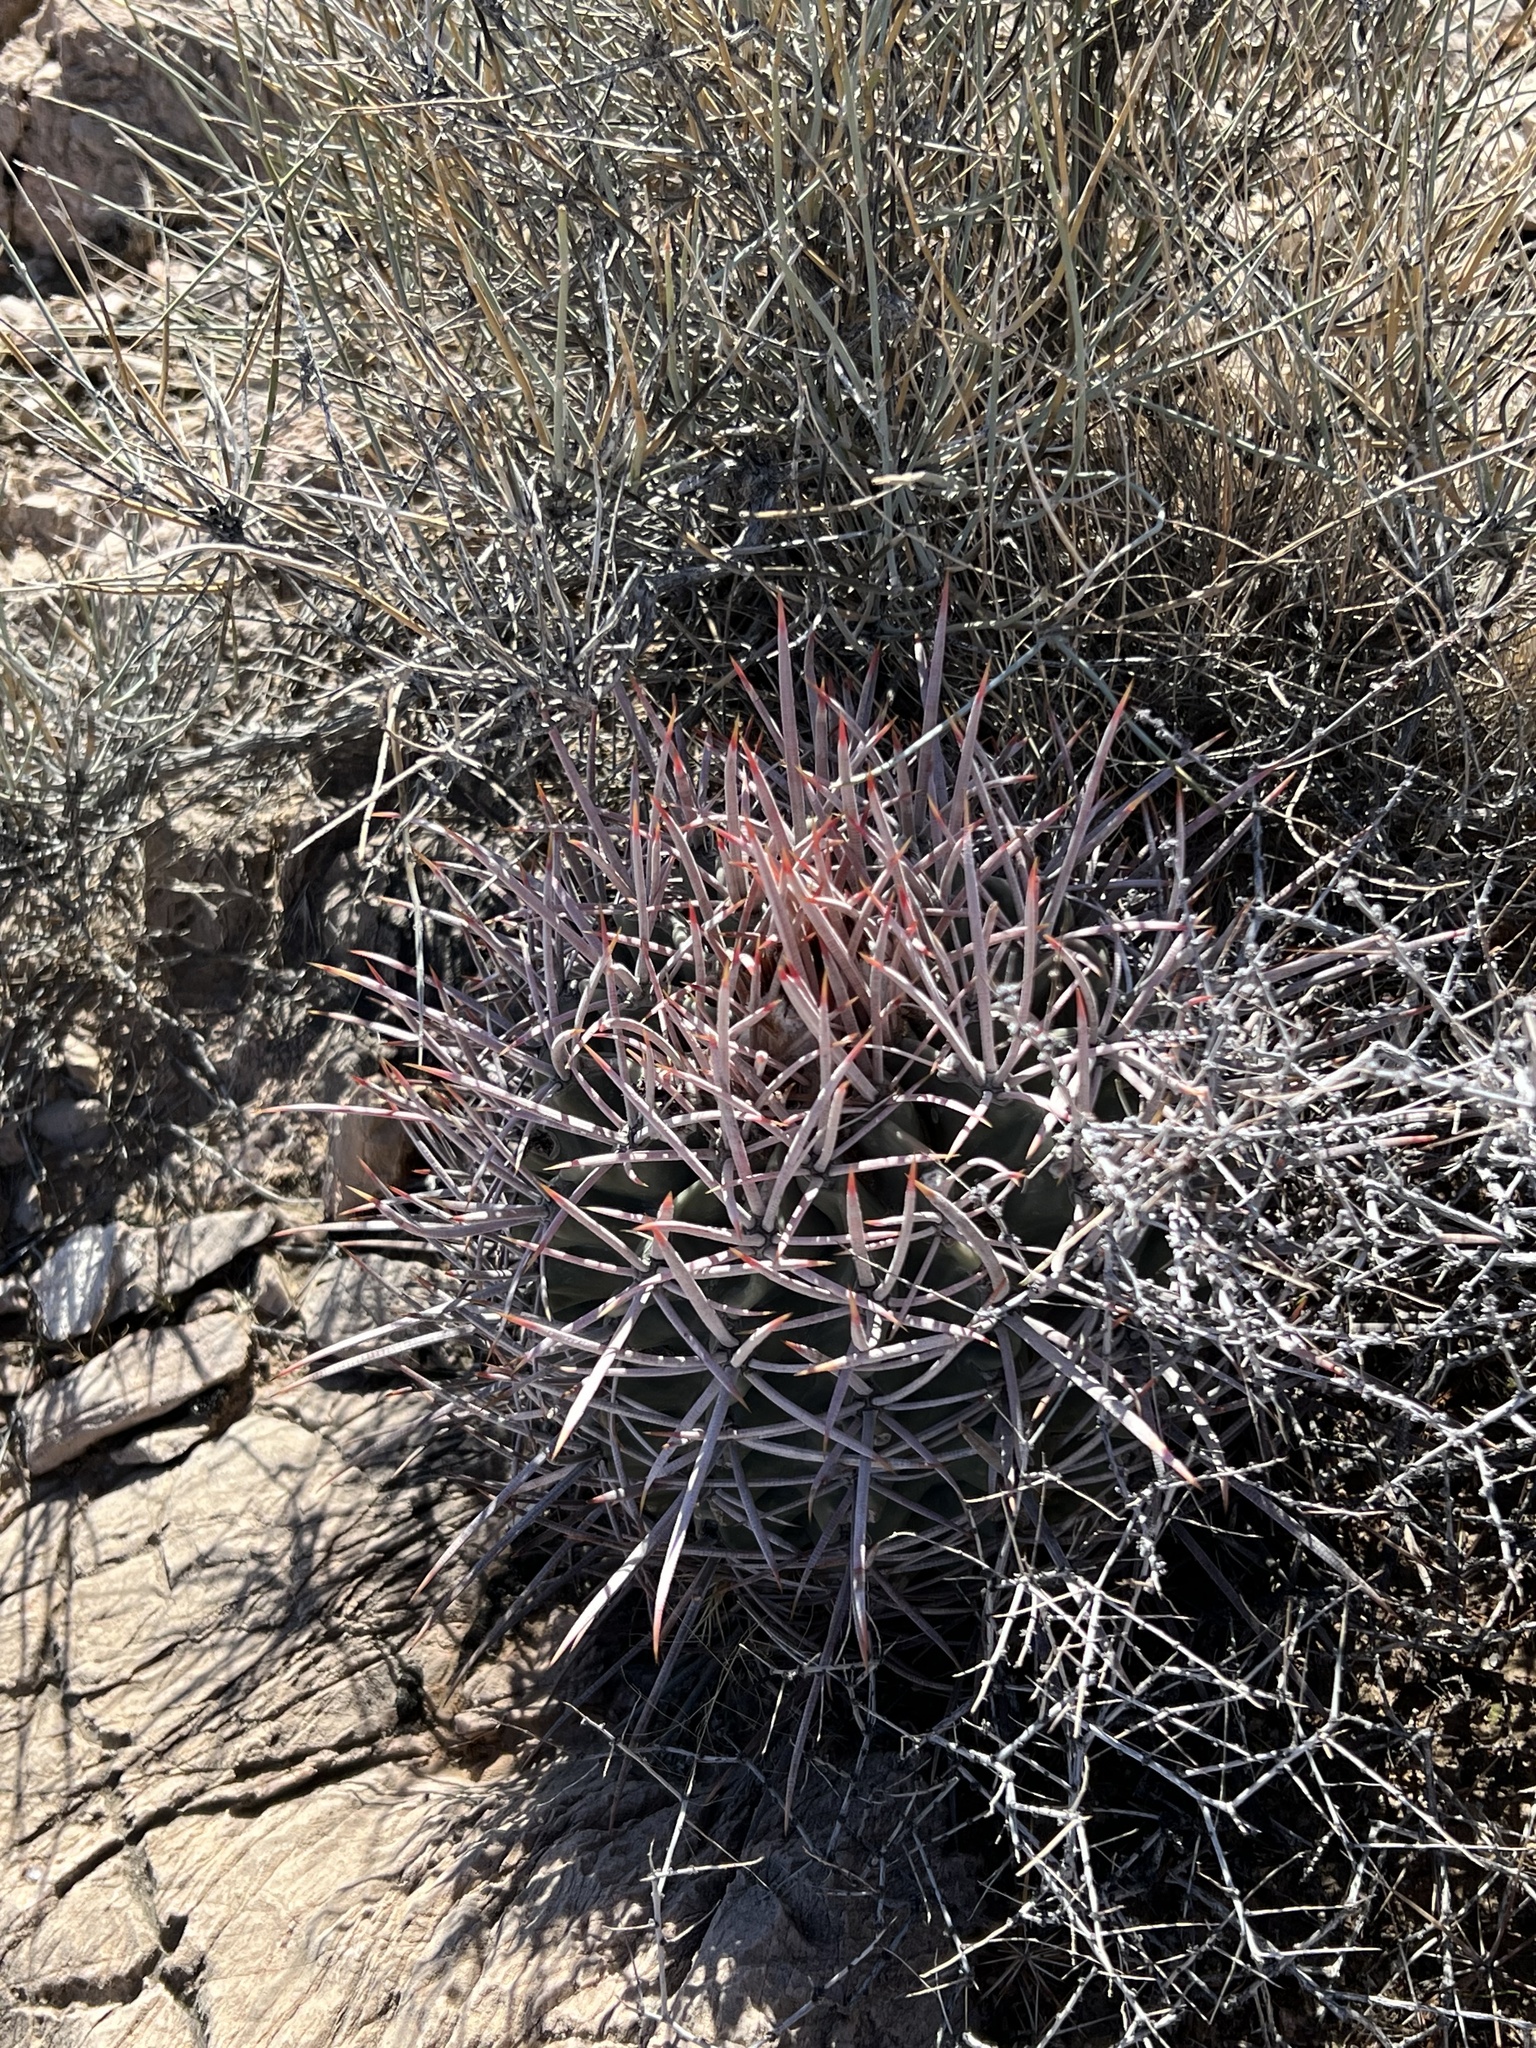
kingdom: Plantae
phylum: Tracheophyta
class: Magnoliopsida
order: Caryophyllales
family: Cactaceae
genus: Echinocactus
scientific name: Echinocactus polycephalus
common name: Cottontop cactus
